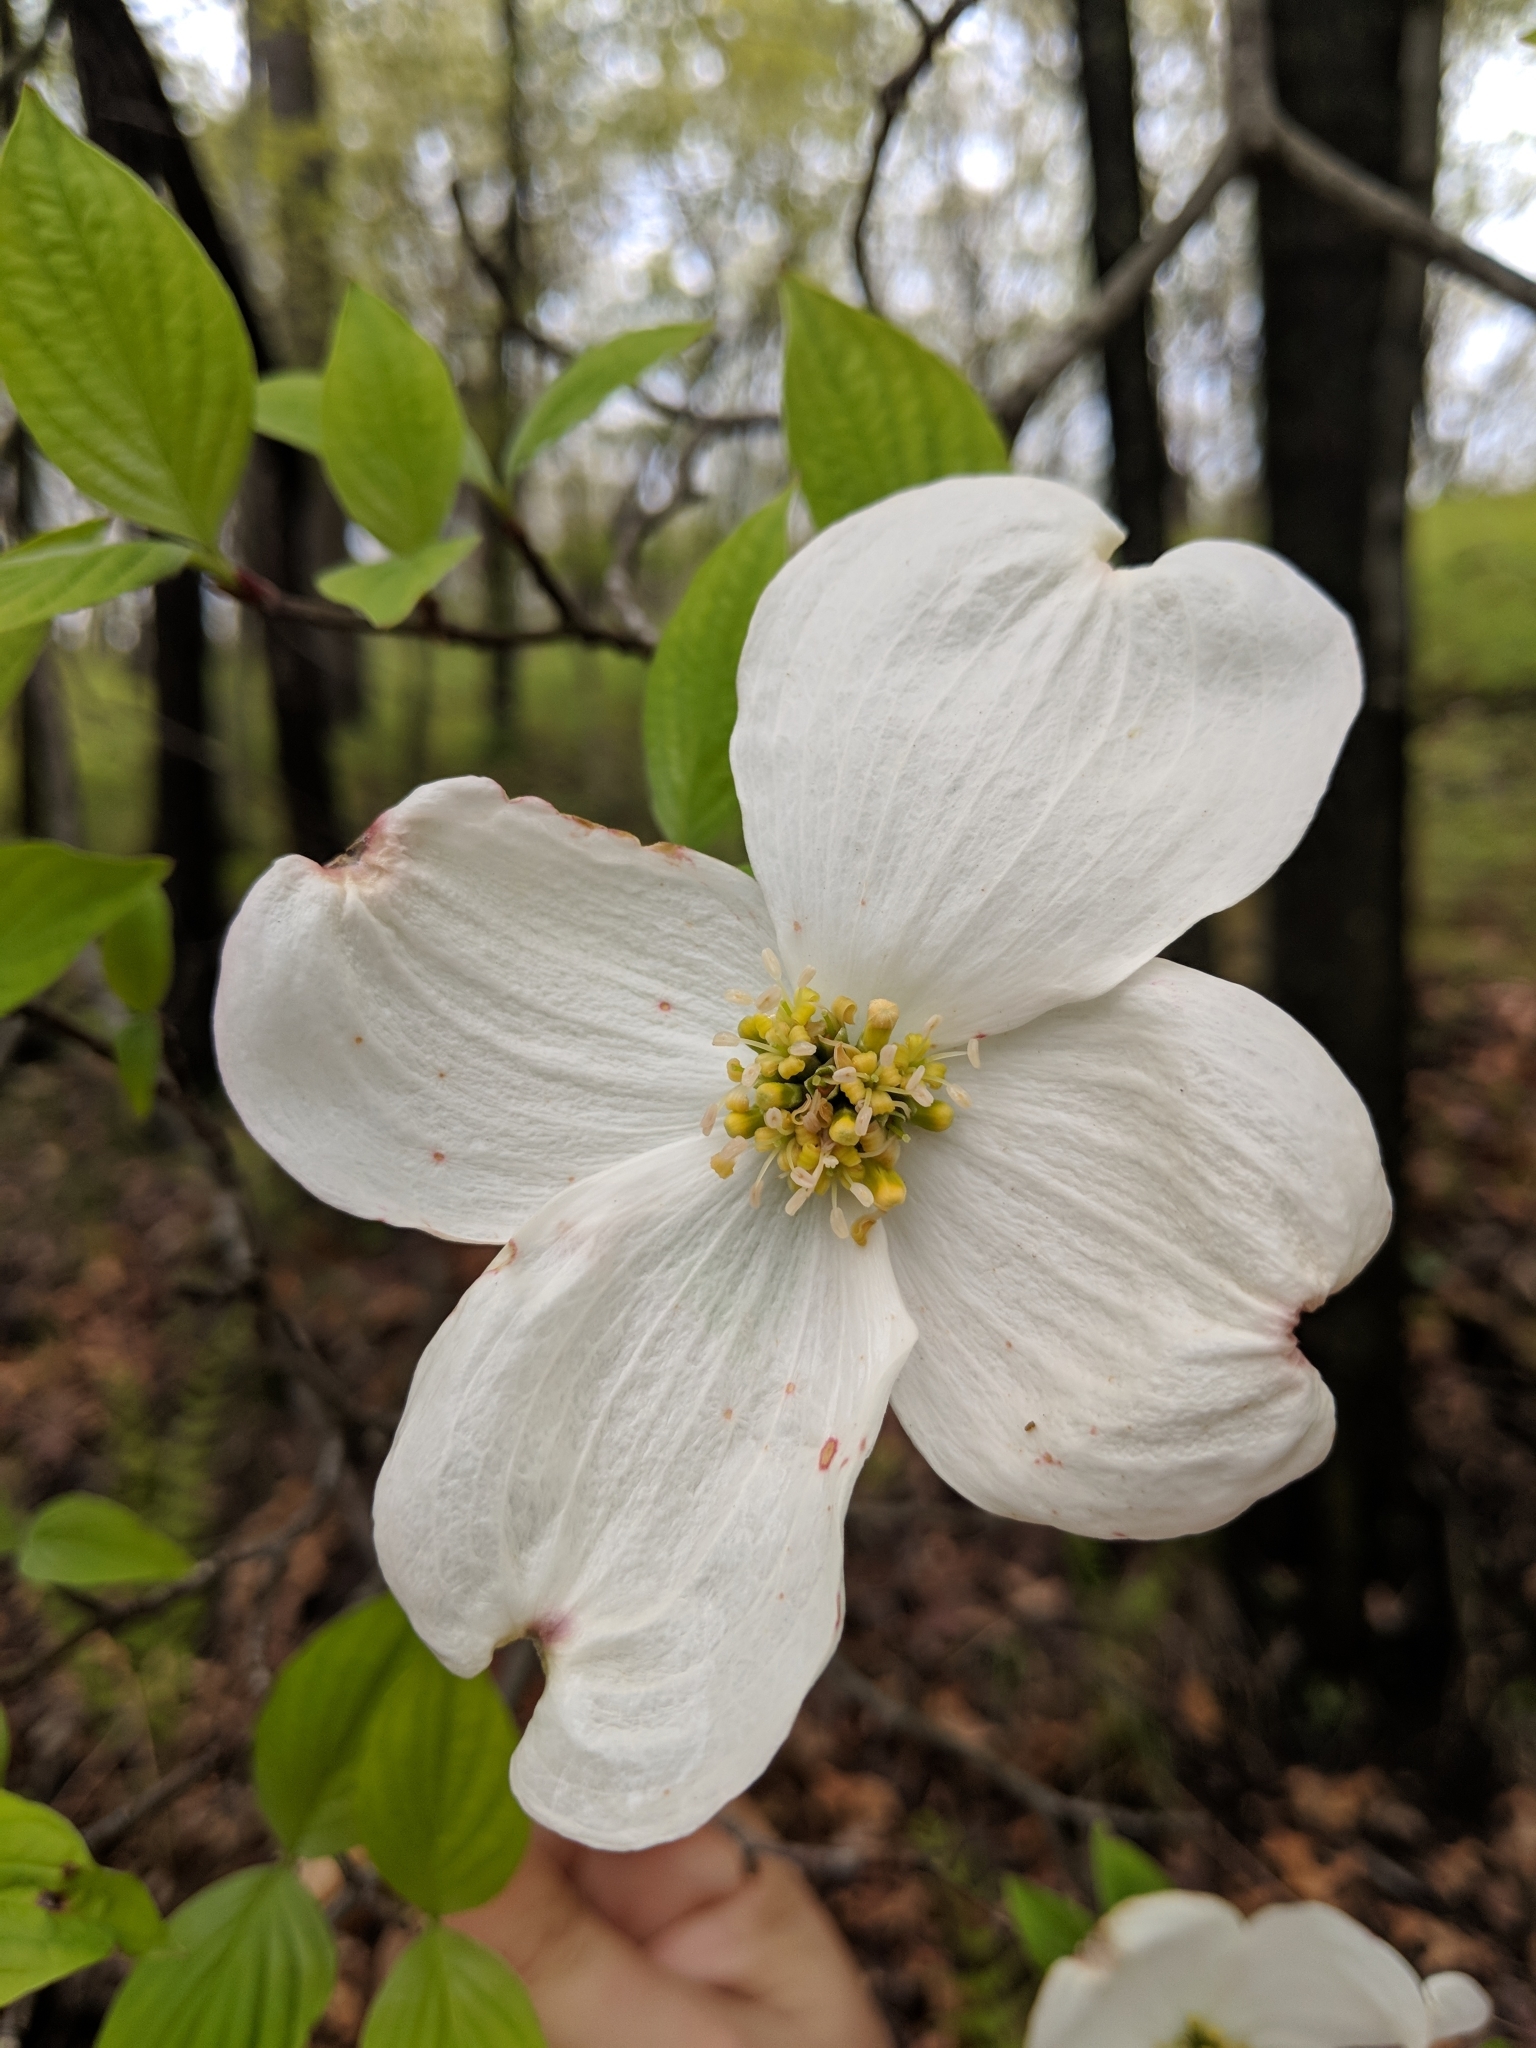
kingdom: Plantae
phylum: Tracheophyta
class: Magnoliopsida
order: Cornales
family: Cornaceae
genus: Cornus
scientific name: Cornus florida
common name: Flowering dogwood
